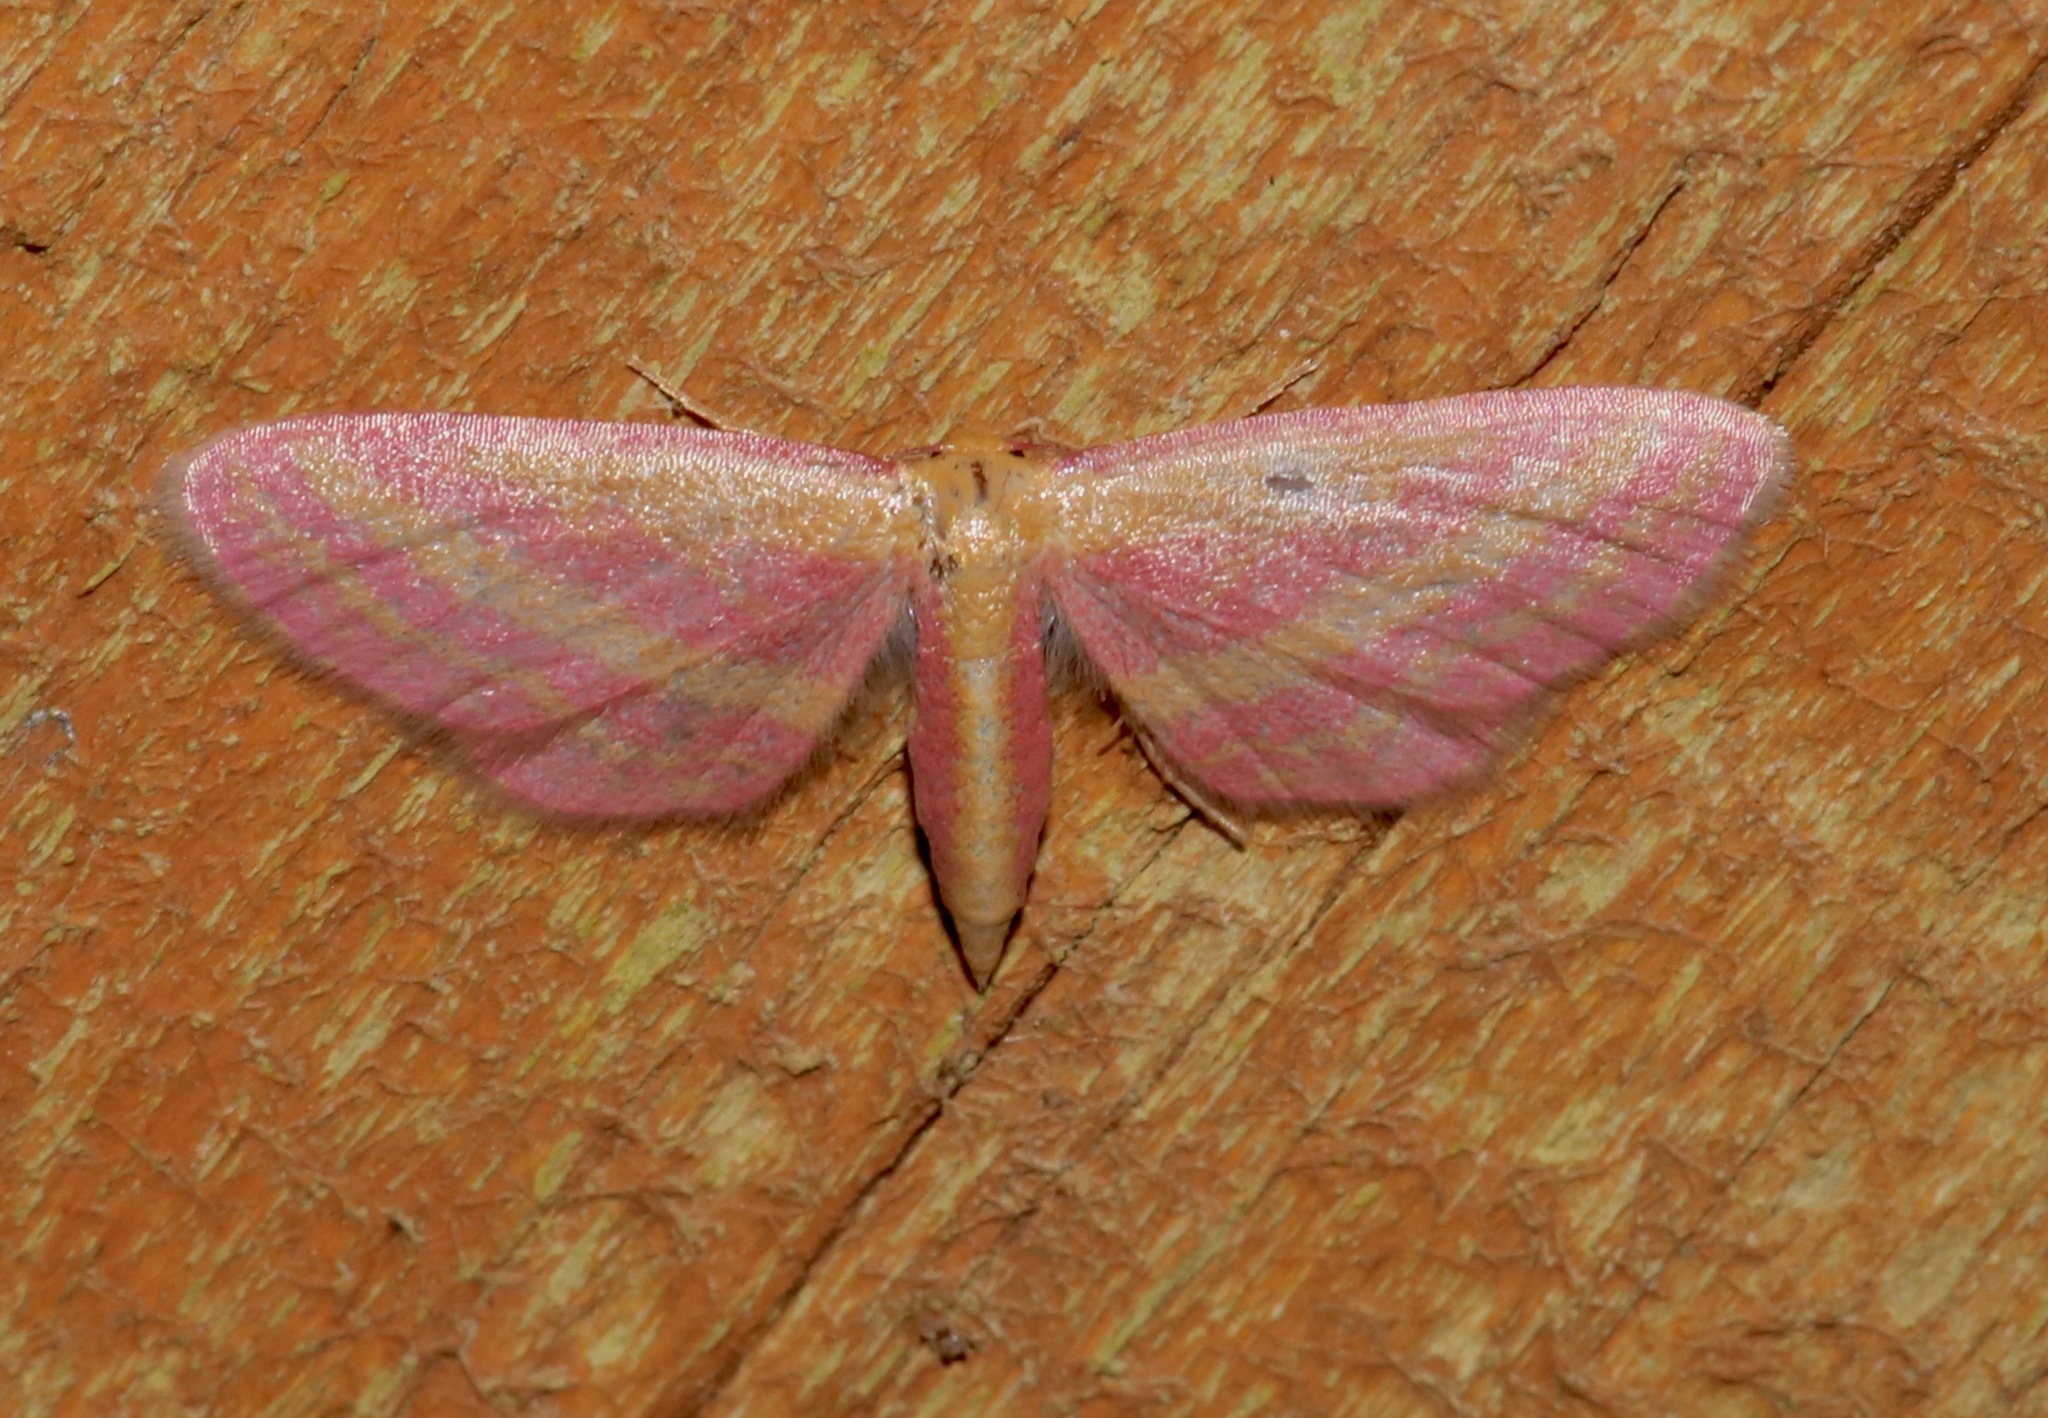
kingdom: Animalia
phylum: Arthropoda
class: Insecta
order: Lepidoptera
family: Geometridae
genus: Leptostales
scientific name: Leptostales laevitaria
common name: Raspberry wave moth
